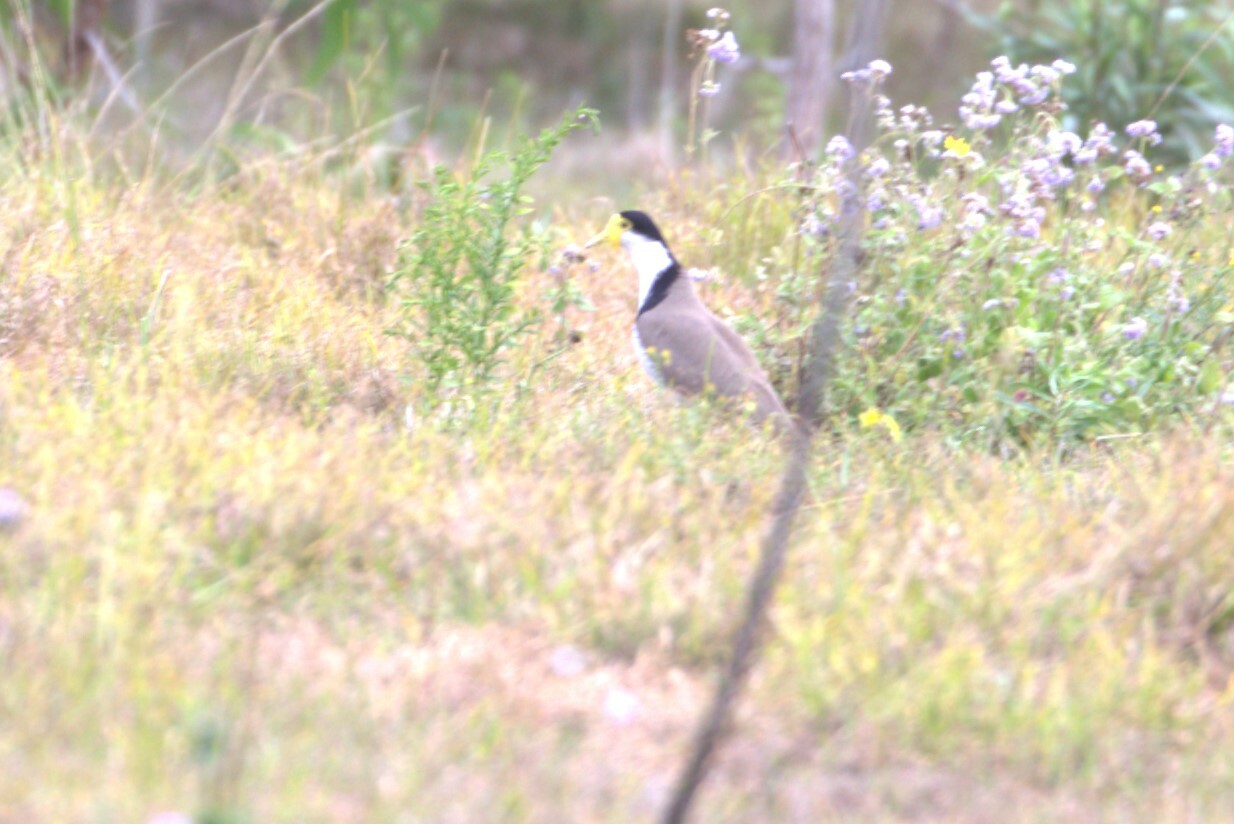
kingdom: Animalia
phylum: Chordata
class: Aves
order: Charadriiformes
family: Charadriidae
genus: Vanellus
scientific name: Vanellus miles
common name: Masked lapwing
